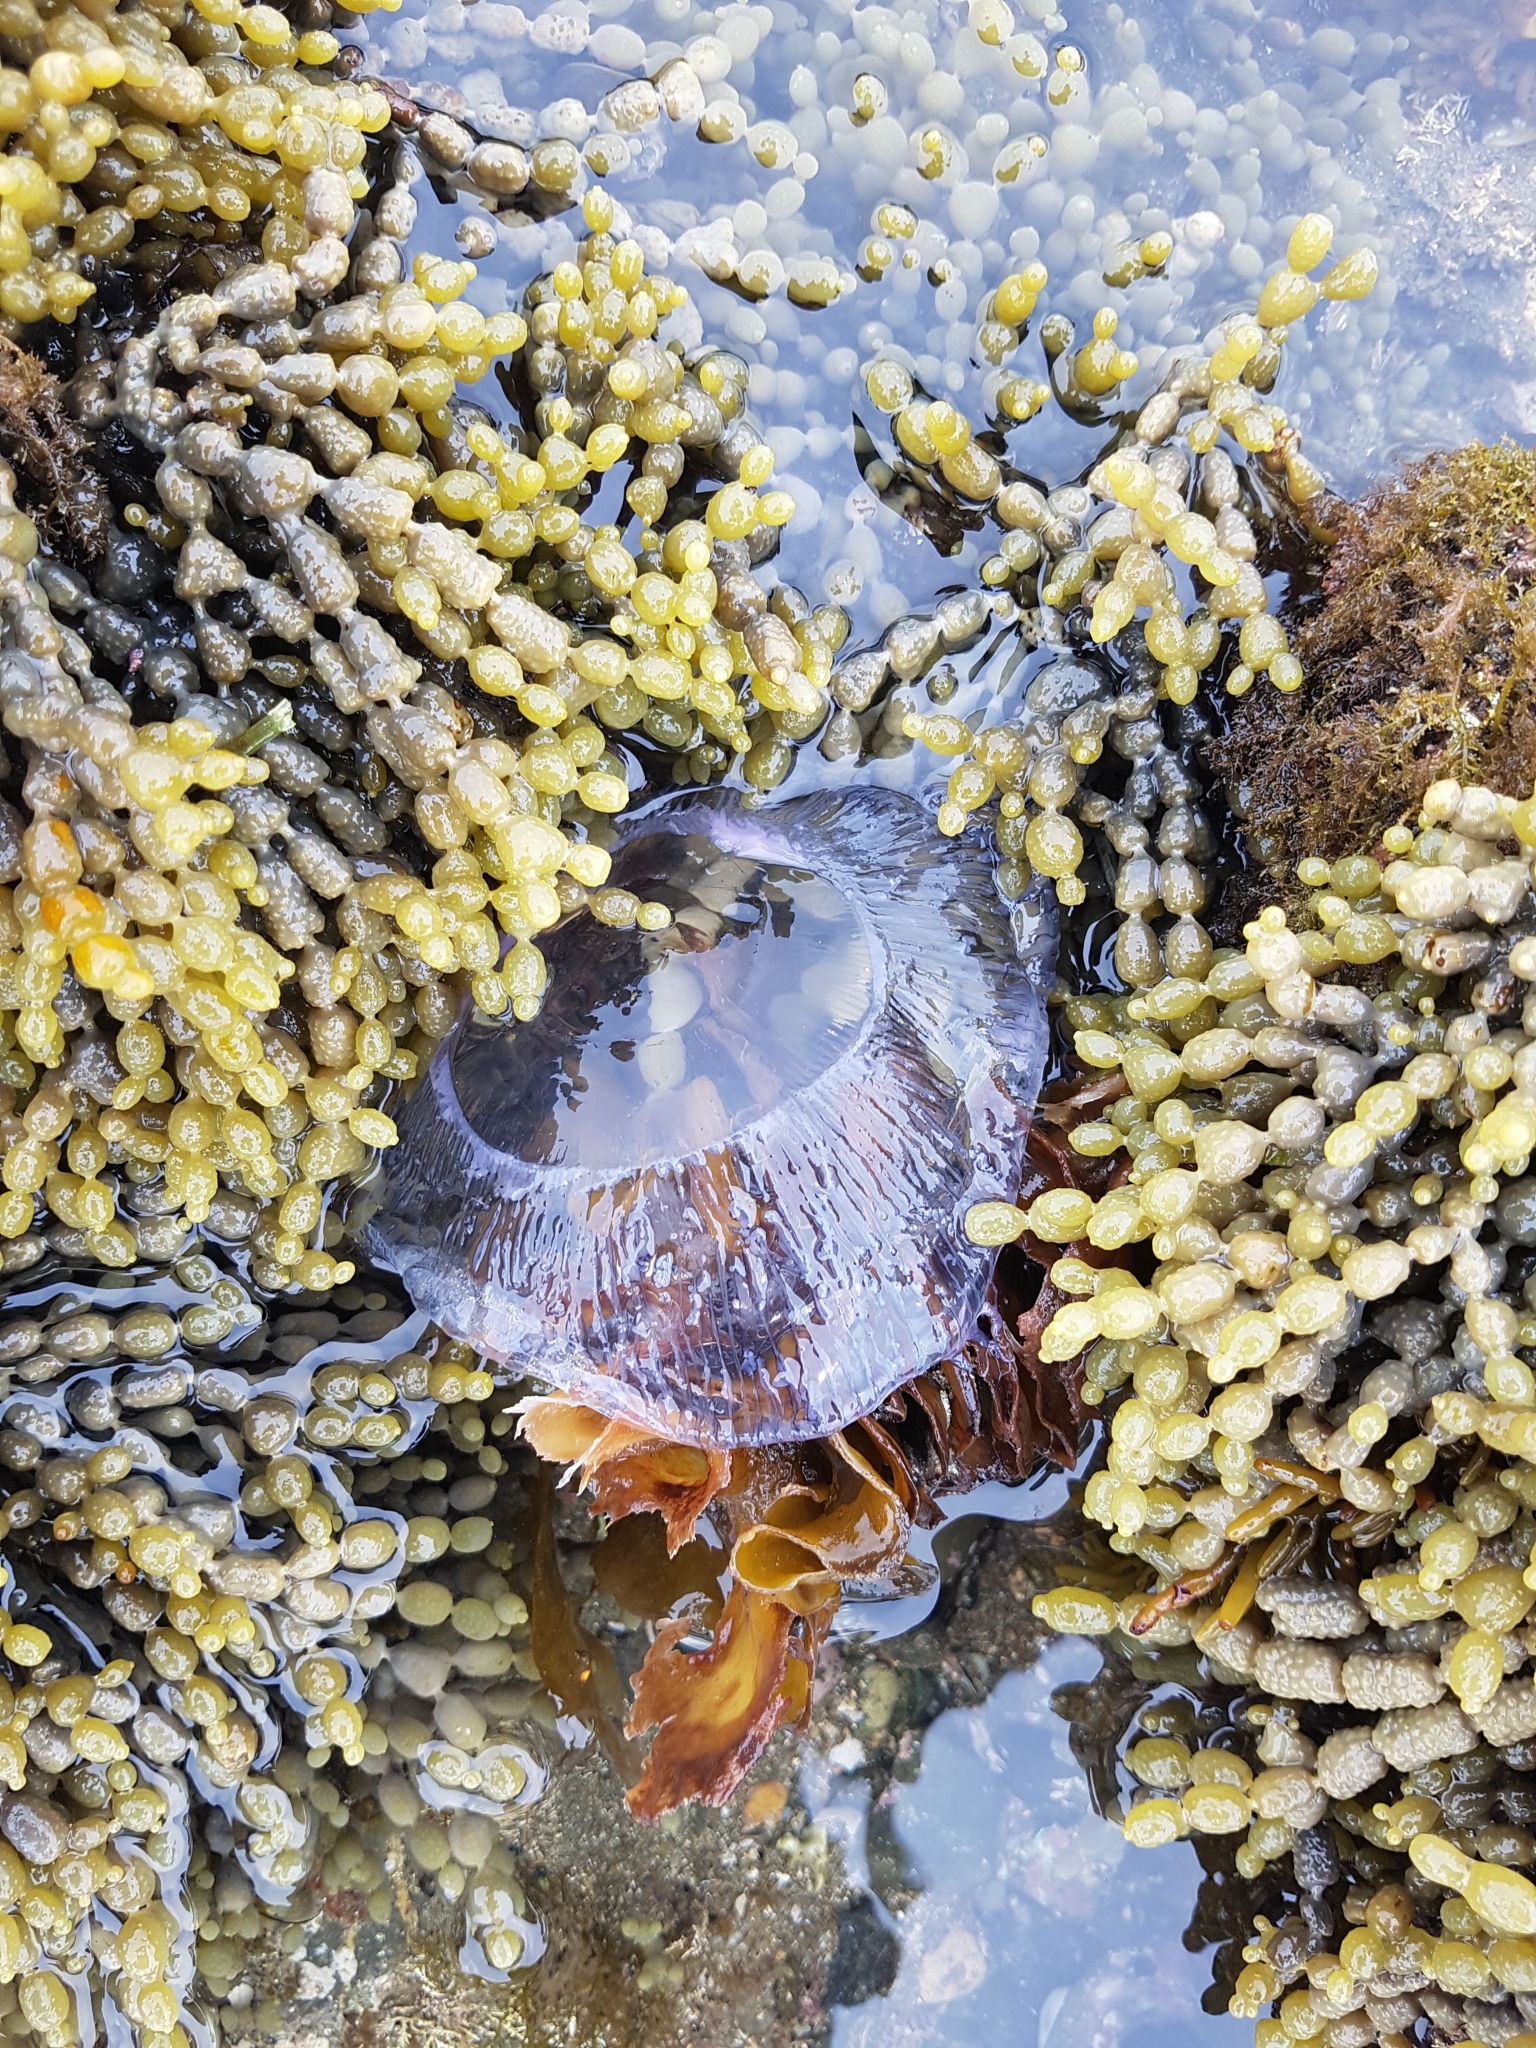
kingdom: Animalia
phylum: Cnidaria
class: Hydrozoa
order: Leptothecata
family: Aequoreidae
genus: Aequorea
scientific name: Aequorea forskalea
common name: Many-ribbed jellyfish
